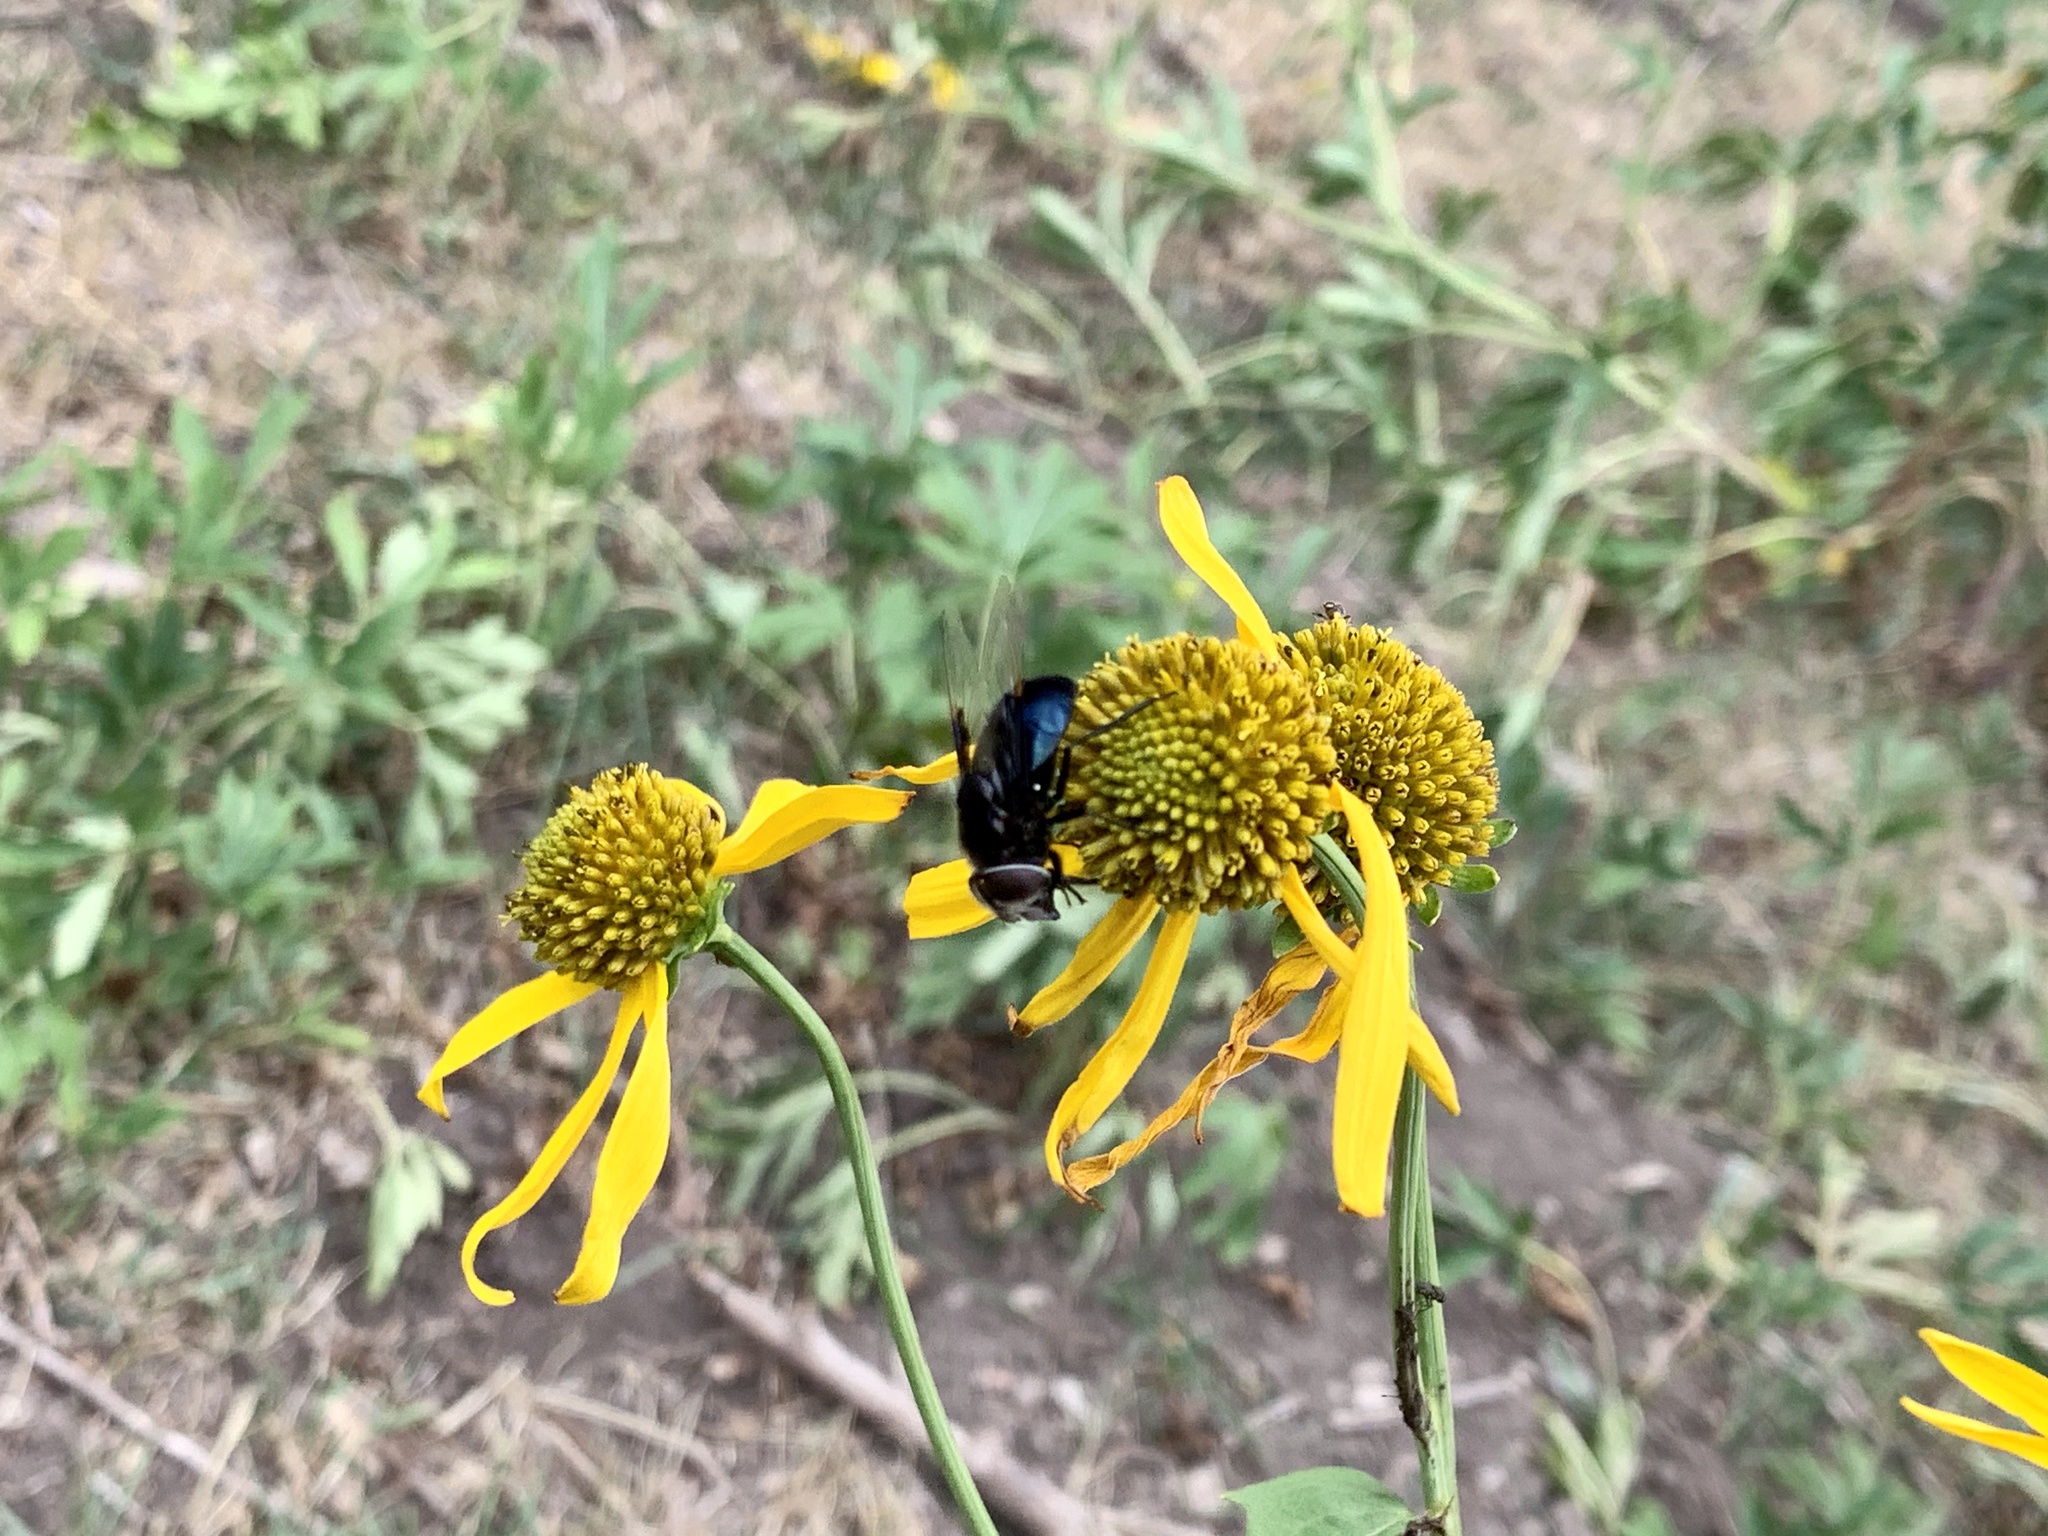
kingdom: Animalia
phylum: Arthropoda
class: Insecta
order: Diptera
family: Syrphidae
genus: Copestylum
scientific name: Copestylum
